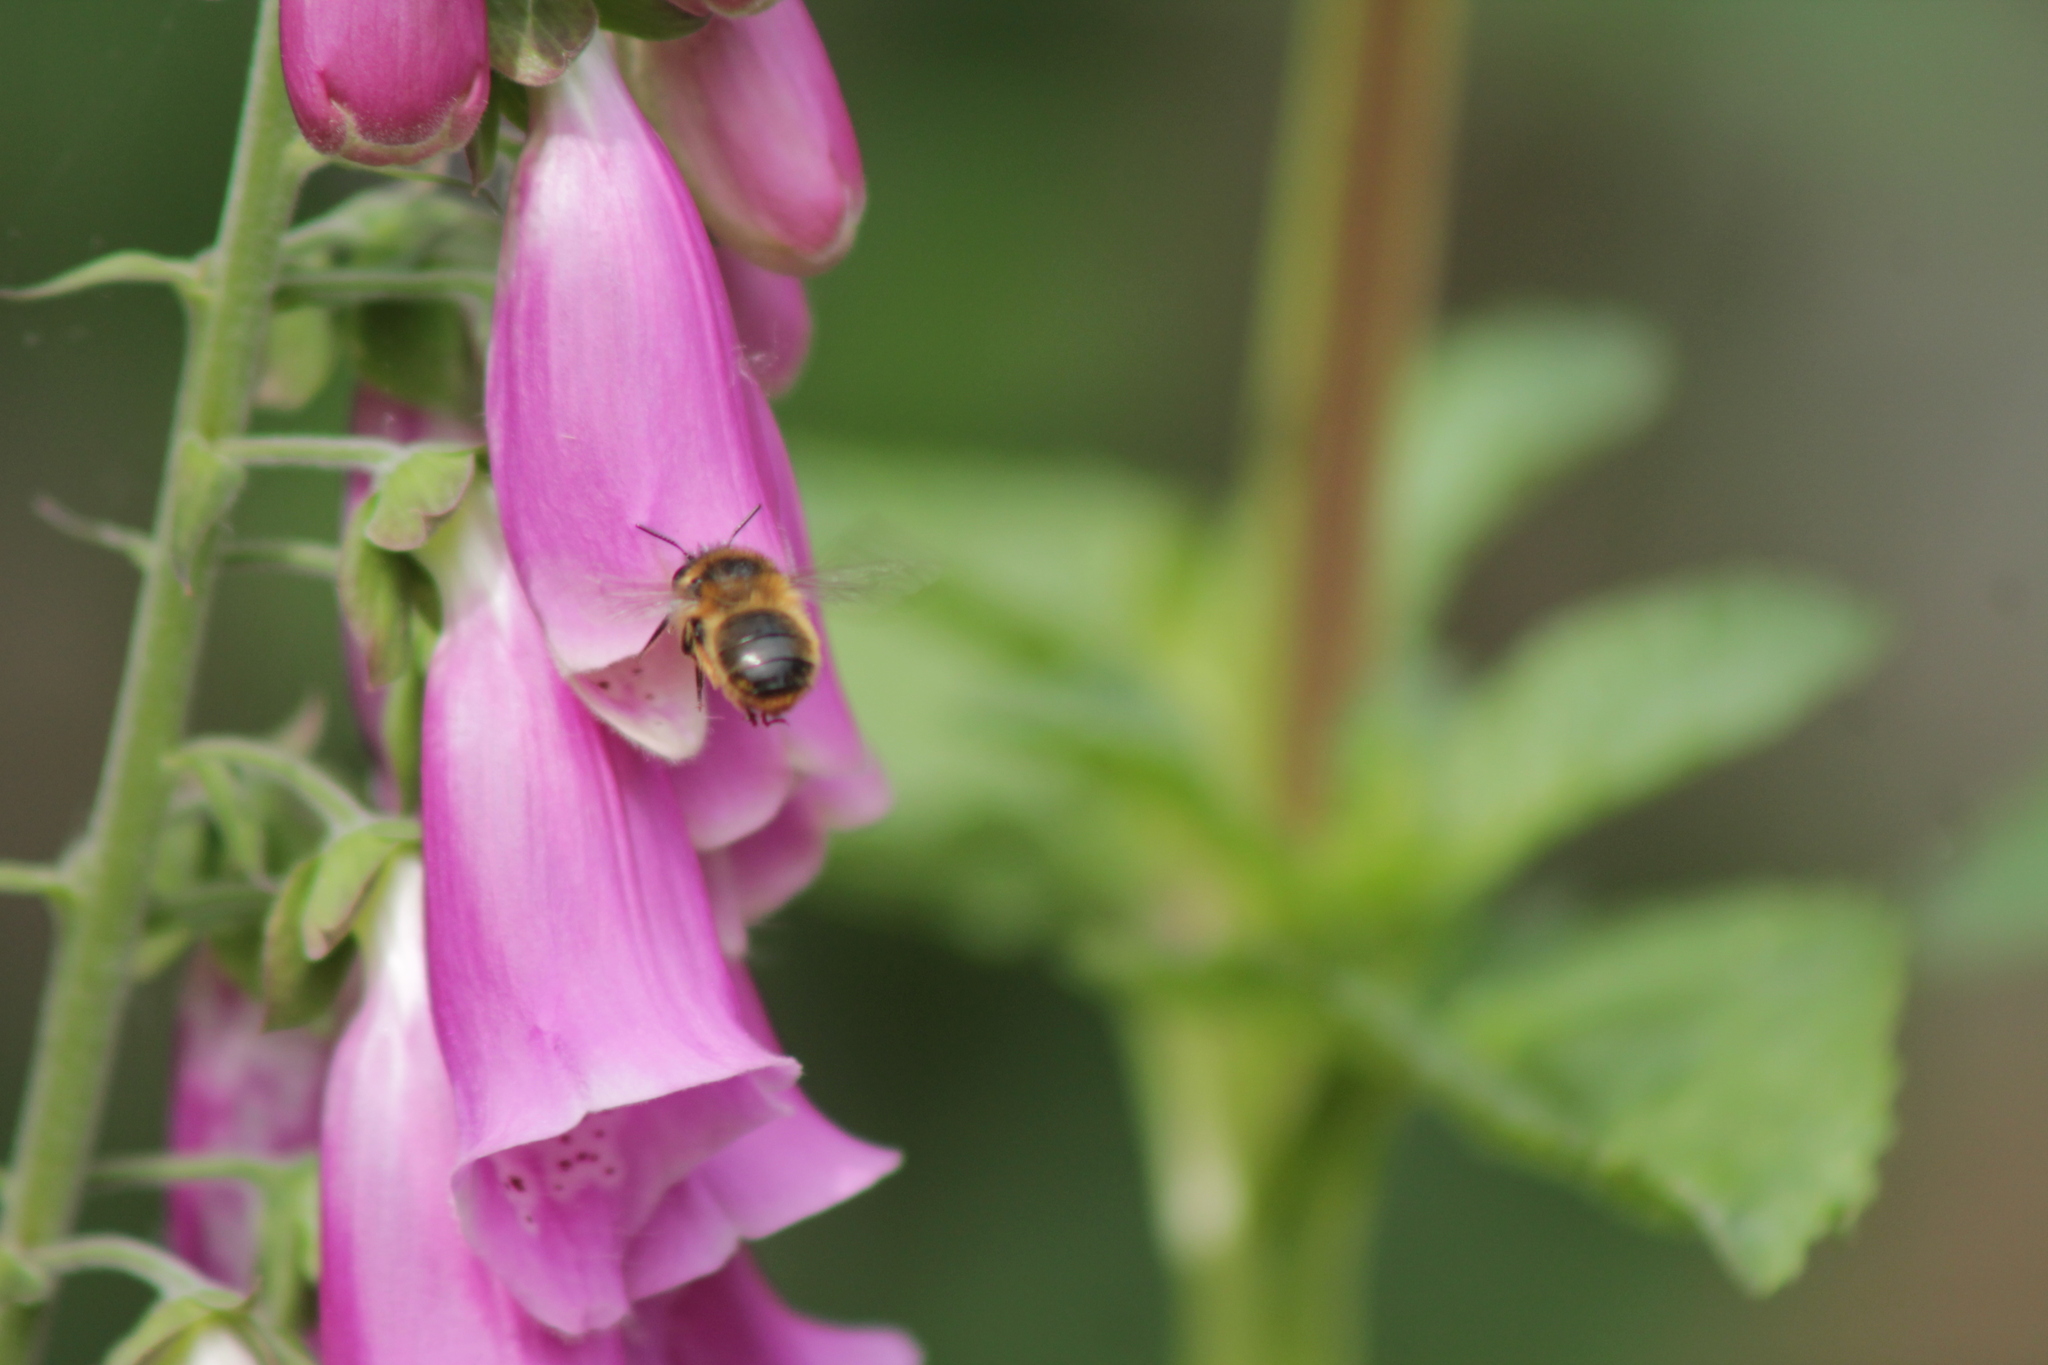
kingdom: Animalia
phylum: Arthropoda
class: Insecta
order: Hymenoptera
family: Apidae
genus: Anthophora
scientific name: Anthophora furcata
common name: Fork-tailed flower bee
